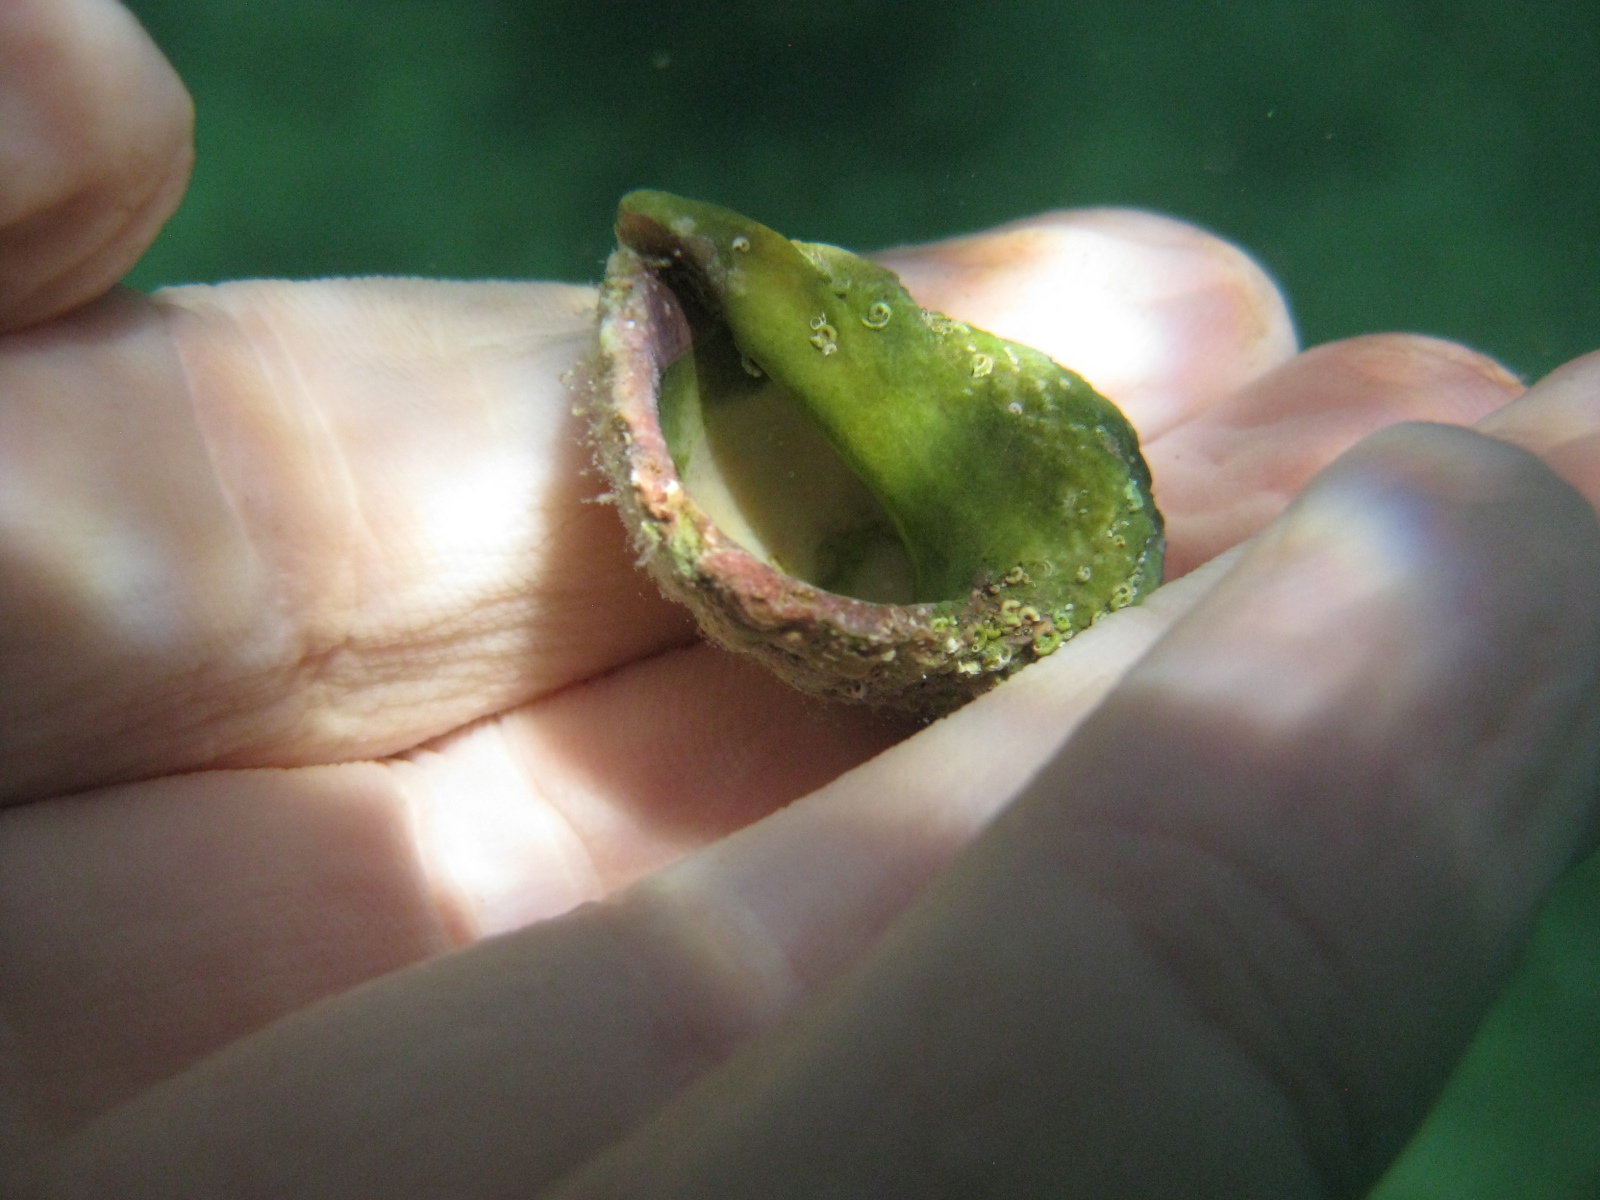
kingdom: Animalia
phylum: Mollusca
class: Gastropoda
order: Neogastropoda
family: Muricidae
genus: Dicathais
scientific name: Dicathais orbita
